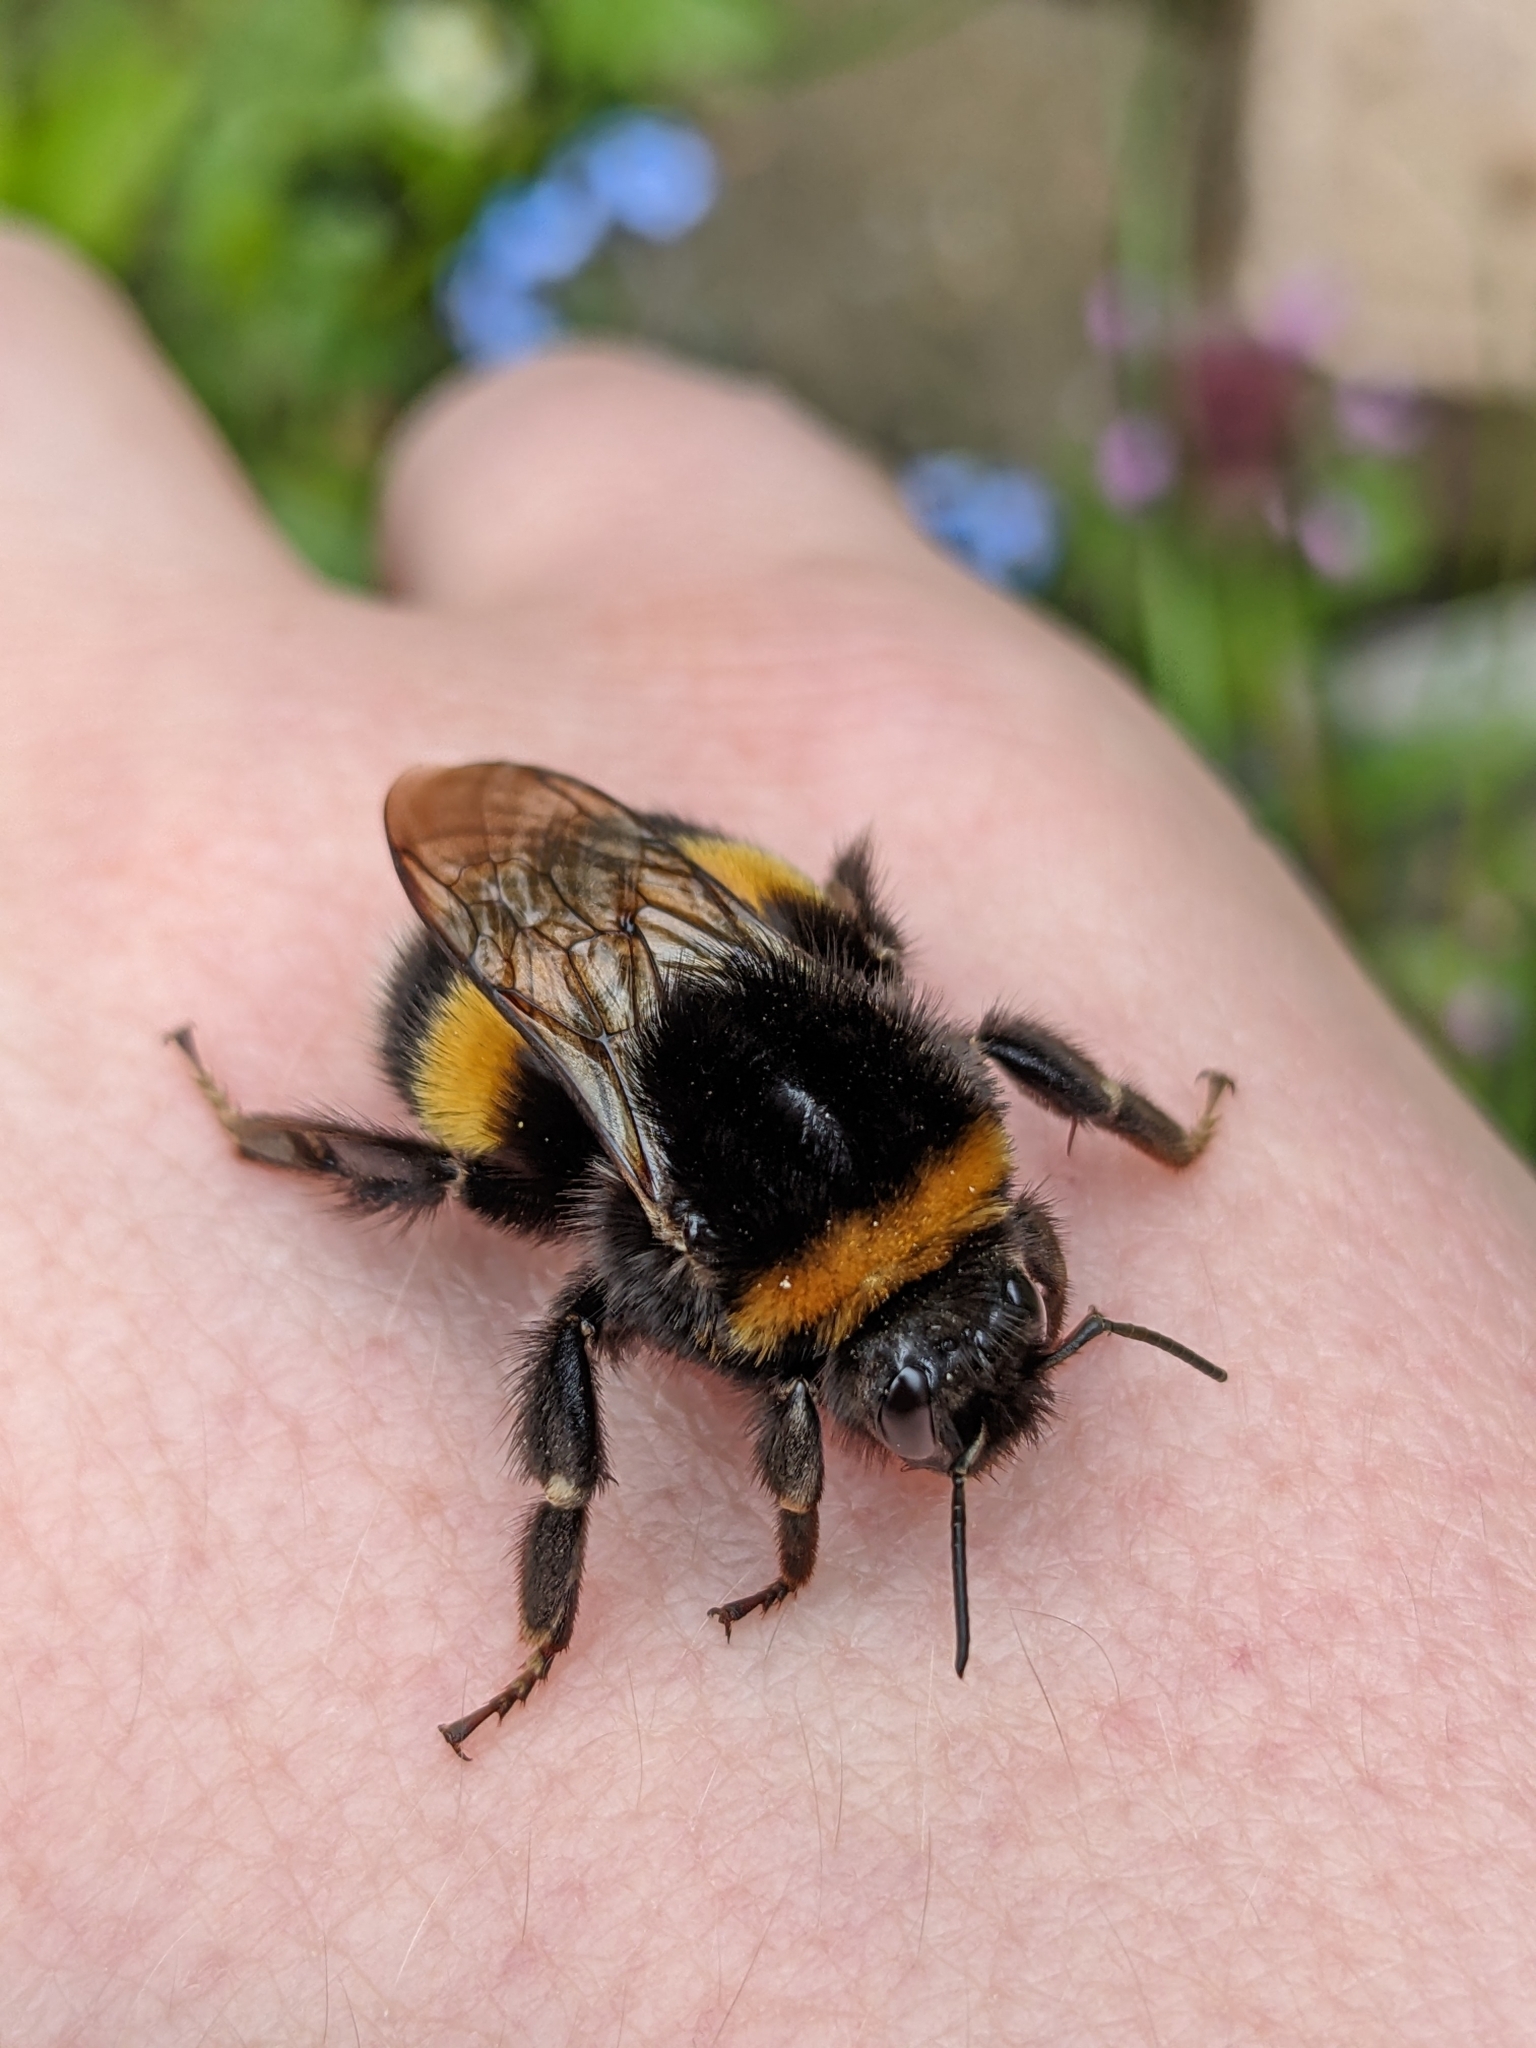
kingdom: Animalia
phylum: Arthropoda
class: Insecta
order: Hymenoptera
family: Apidae
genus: Bombus
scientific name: Bombus terrestris
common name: Buff-tailed bumblebee
